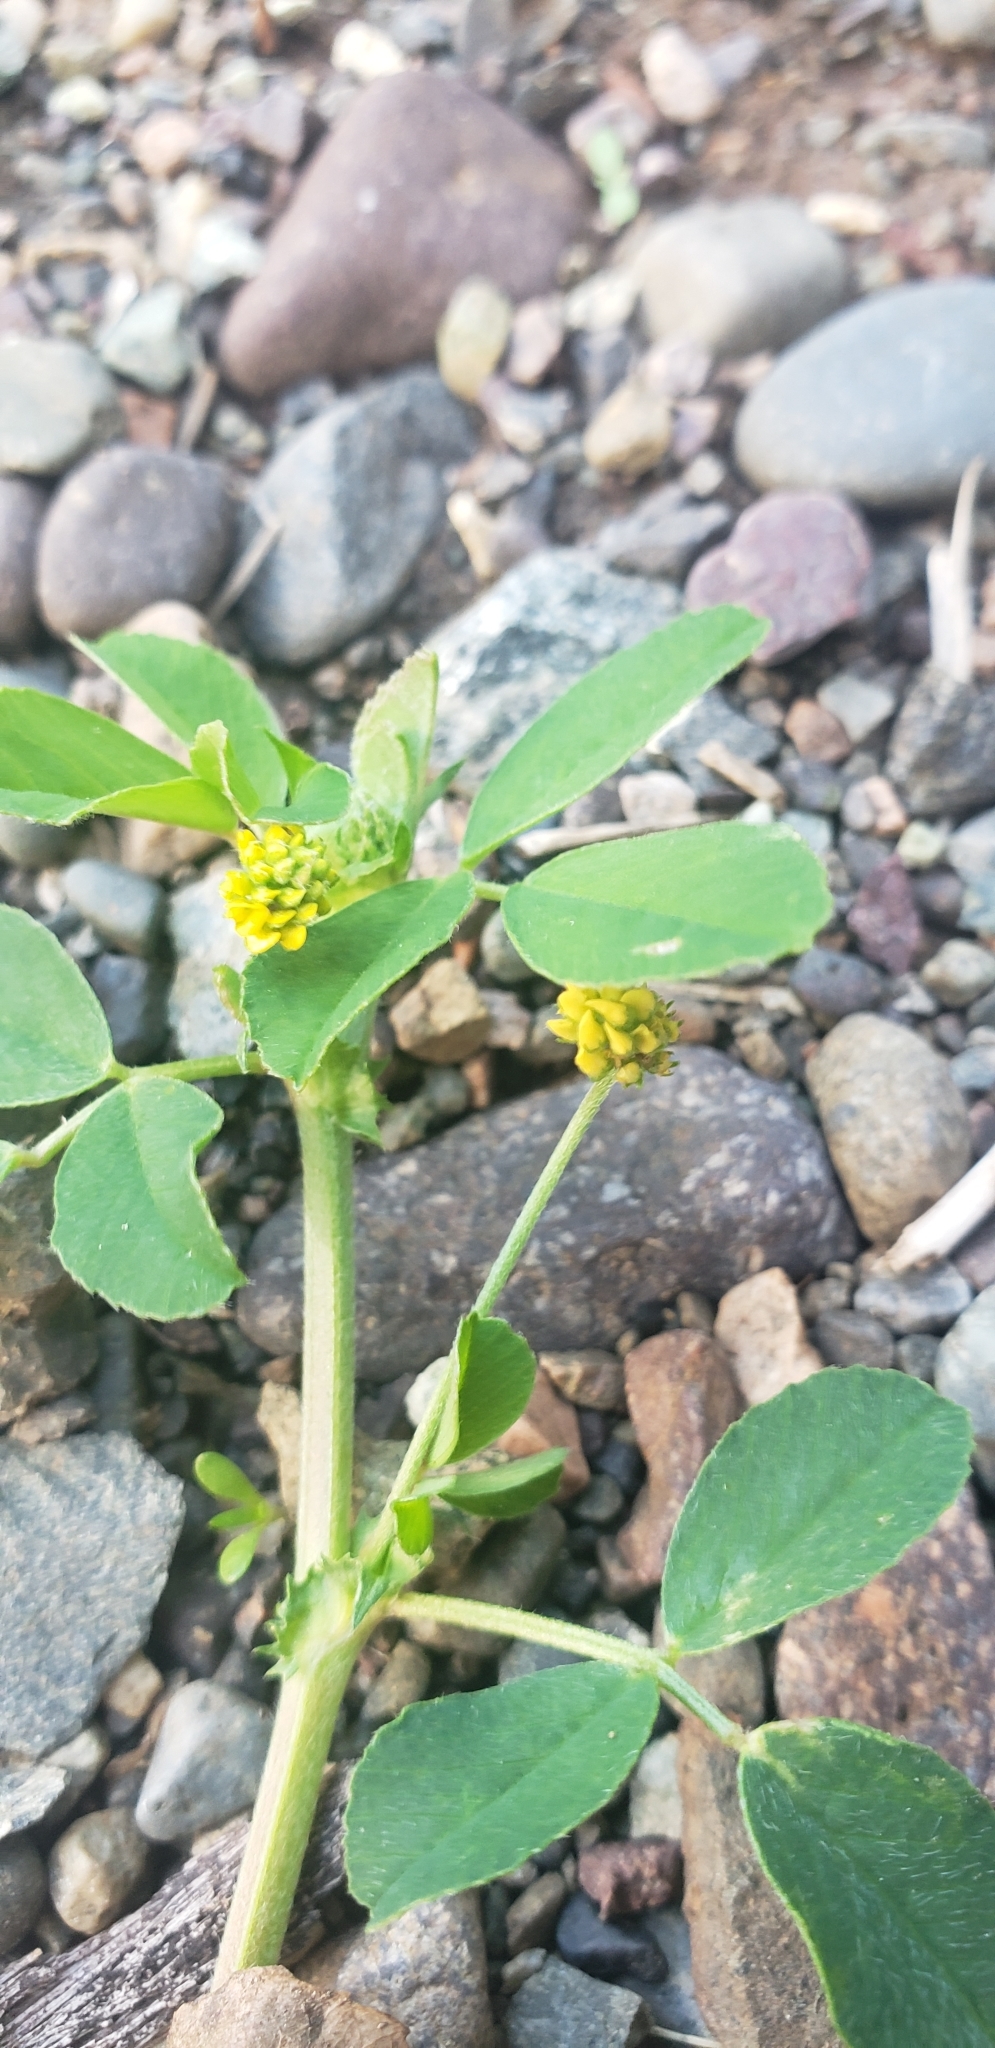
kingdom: Plantae
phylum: Tracheophyta
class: Magnoliopsida
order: Fabales
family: Fabaceae
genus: Medicago
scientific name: Medicago lupulina
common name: Black medick
